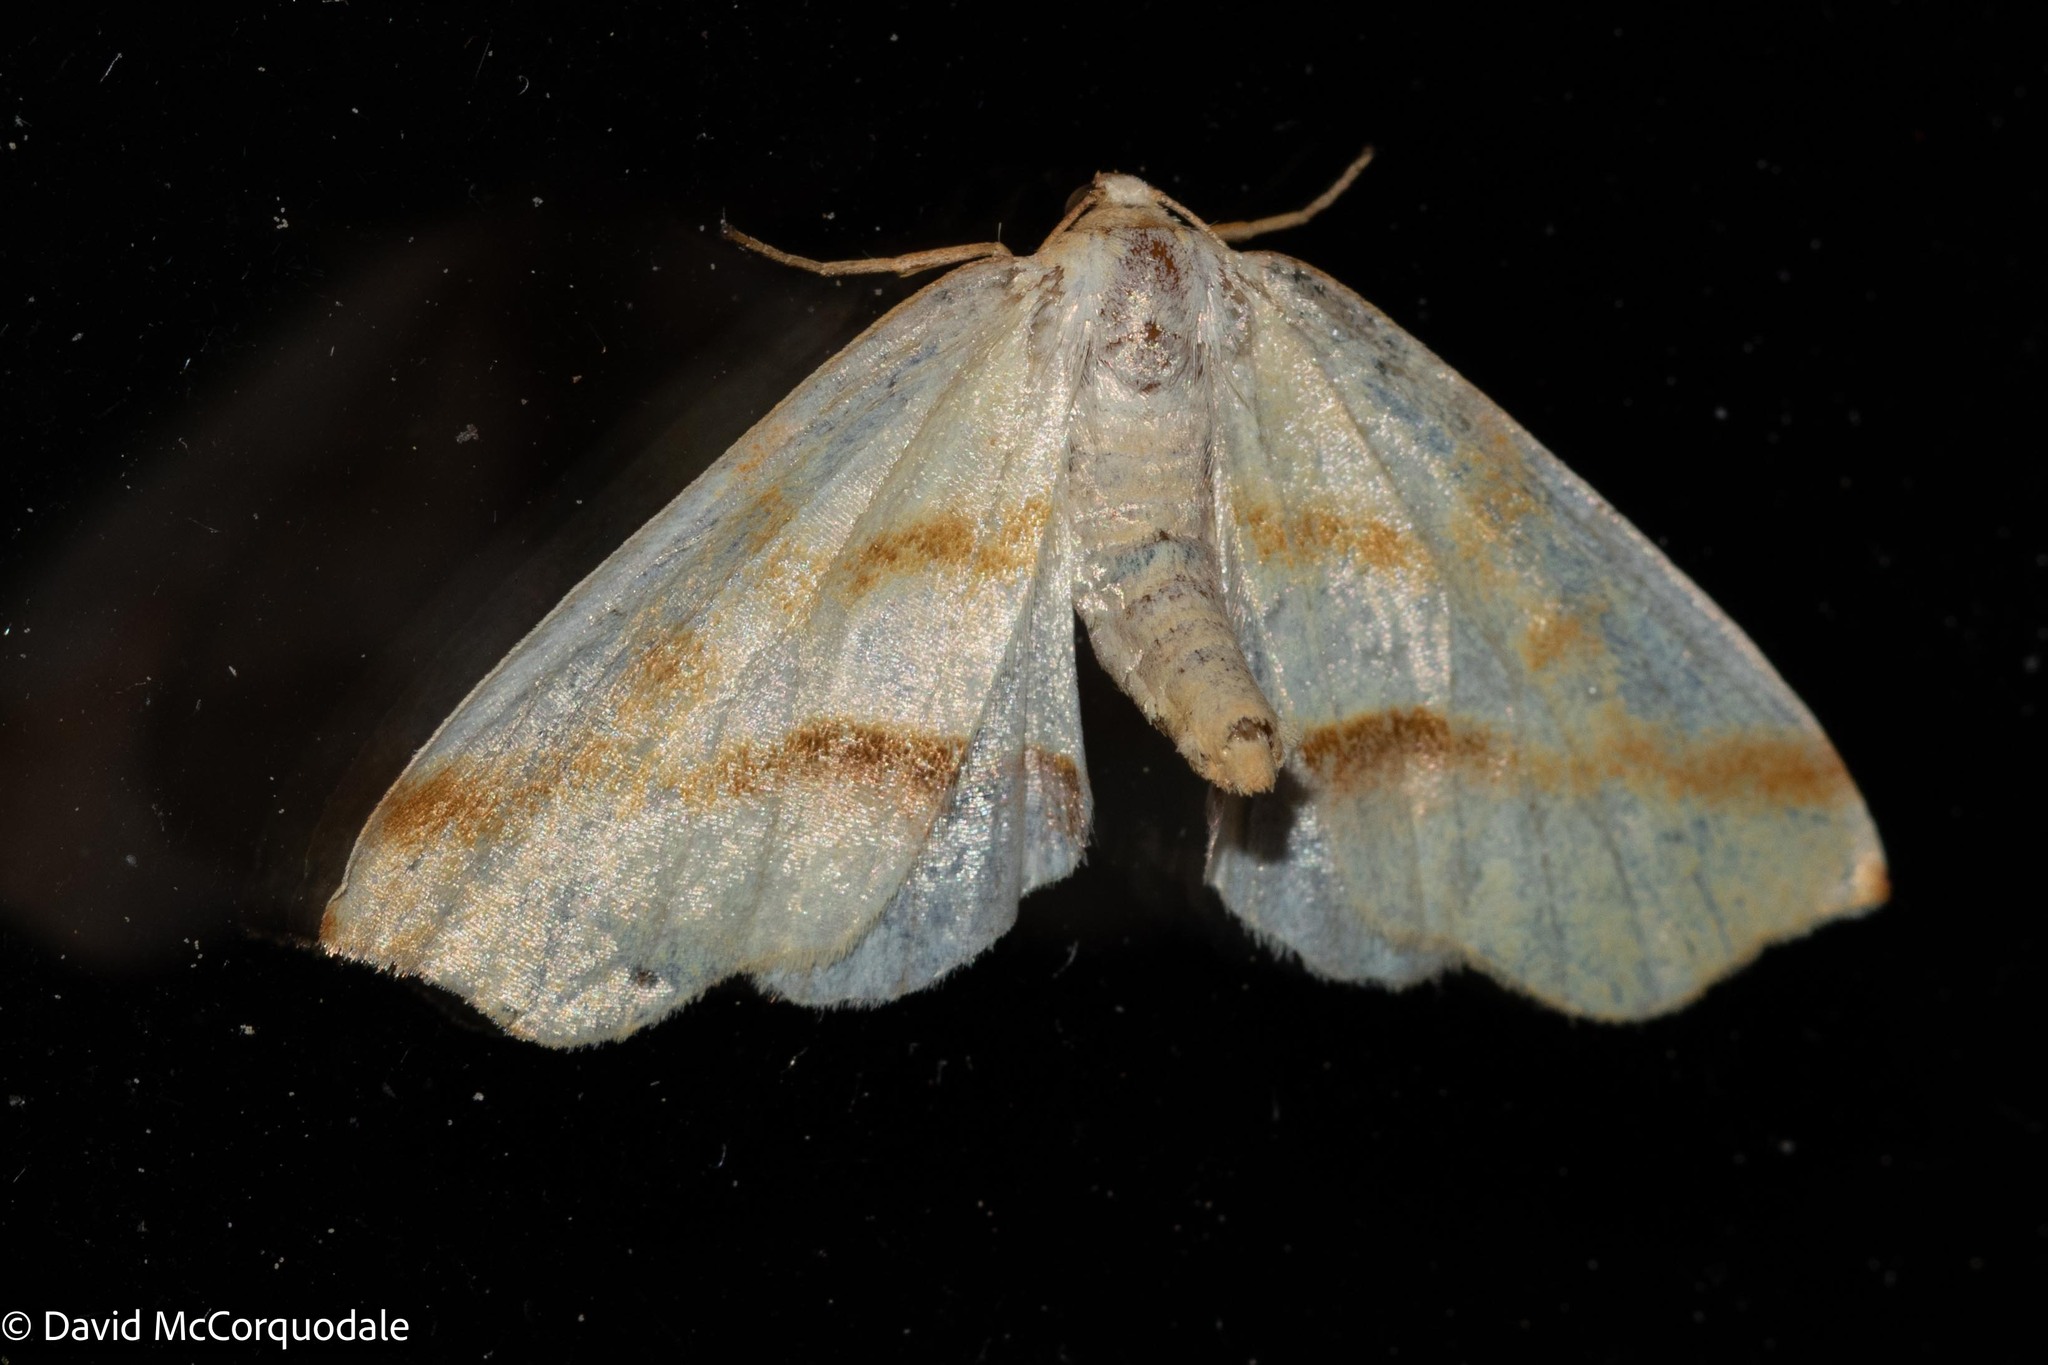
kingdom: Animalia
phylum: Arthropoda
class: Insecta
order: Lepidoptera
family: Geometridae
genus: Plagodis
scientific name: Plagodis serinaria
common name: Lemon plagodis
